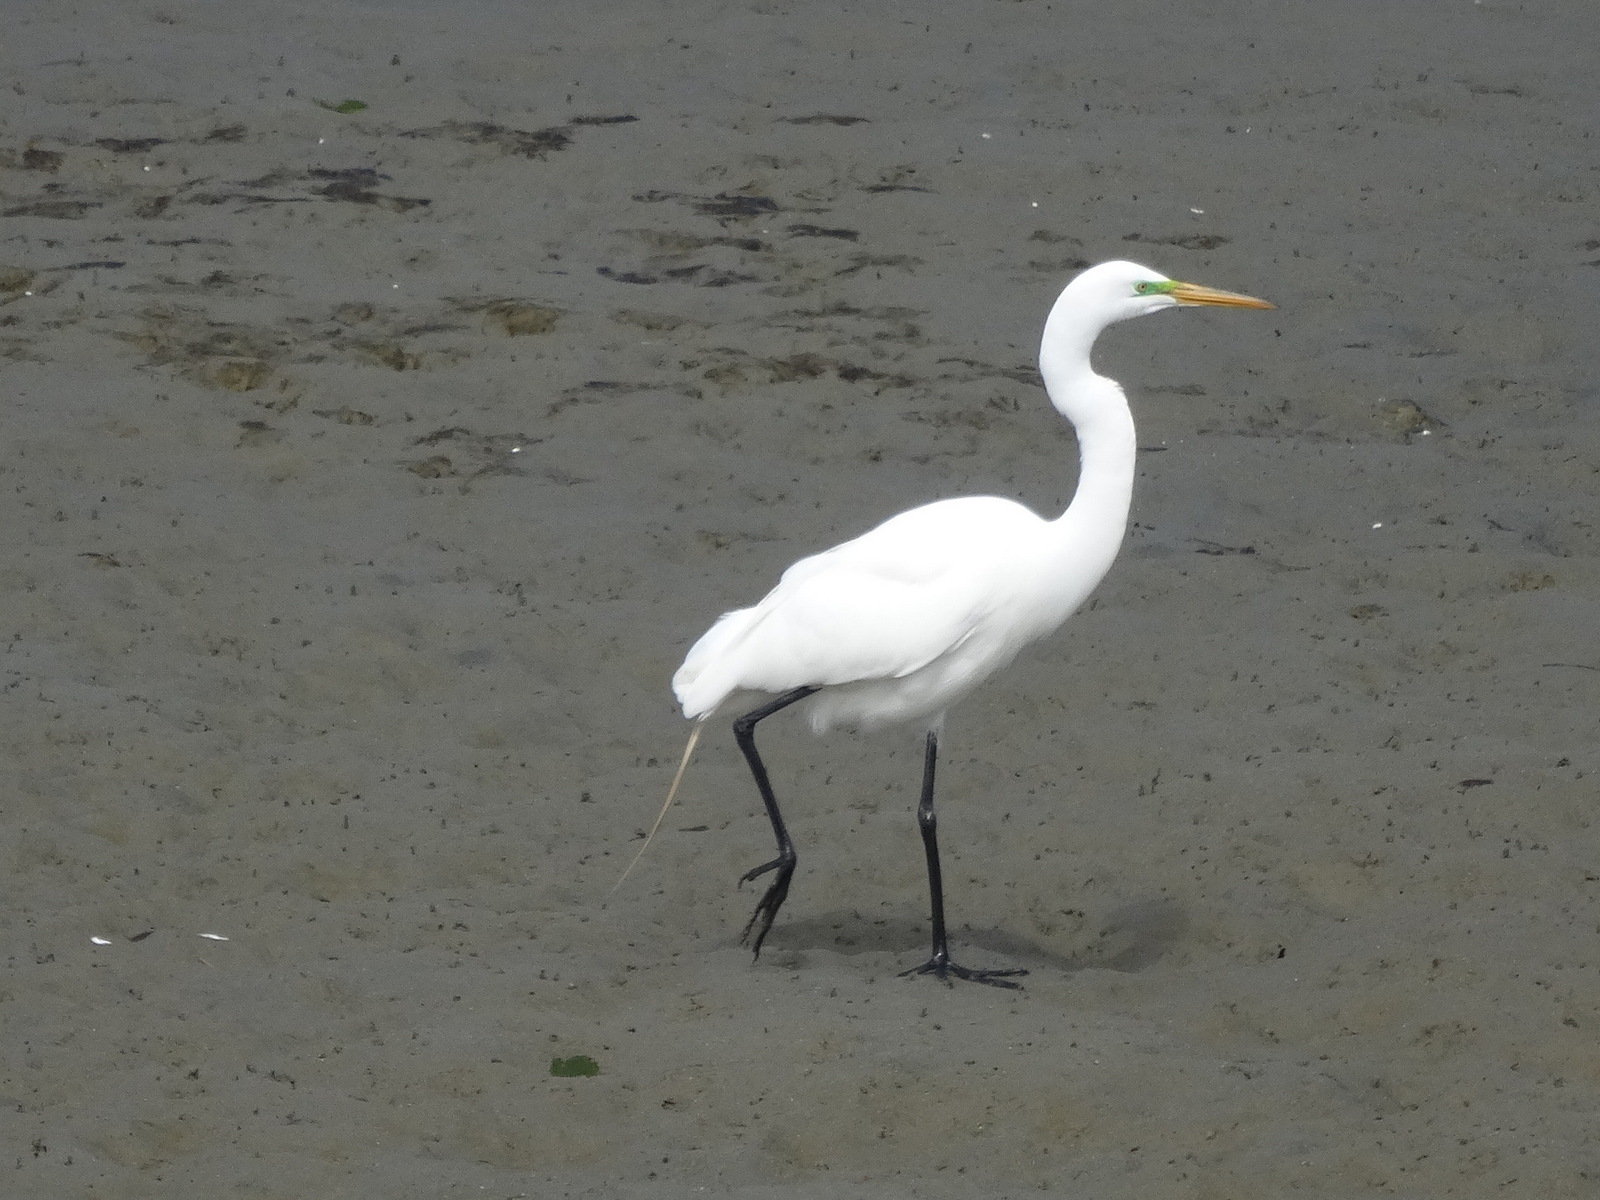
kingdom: Animalia
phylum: Chordata
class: Aves
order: Pelecaniformes
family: Ardeidae
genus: Ardea
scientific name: Ardea alba
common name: Great egret
